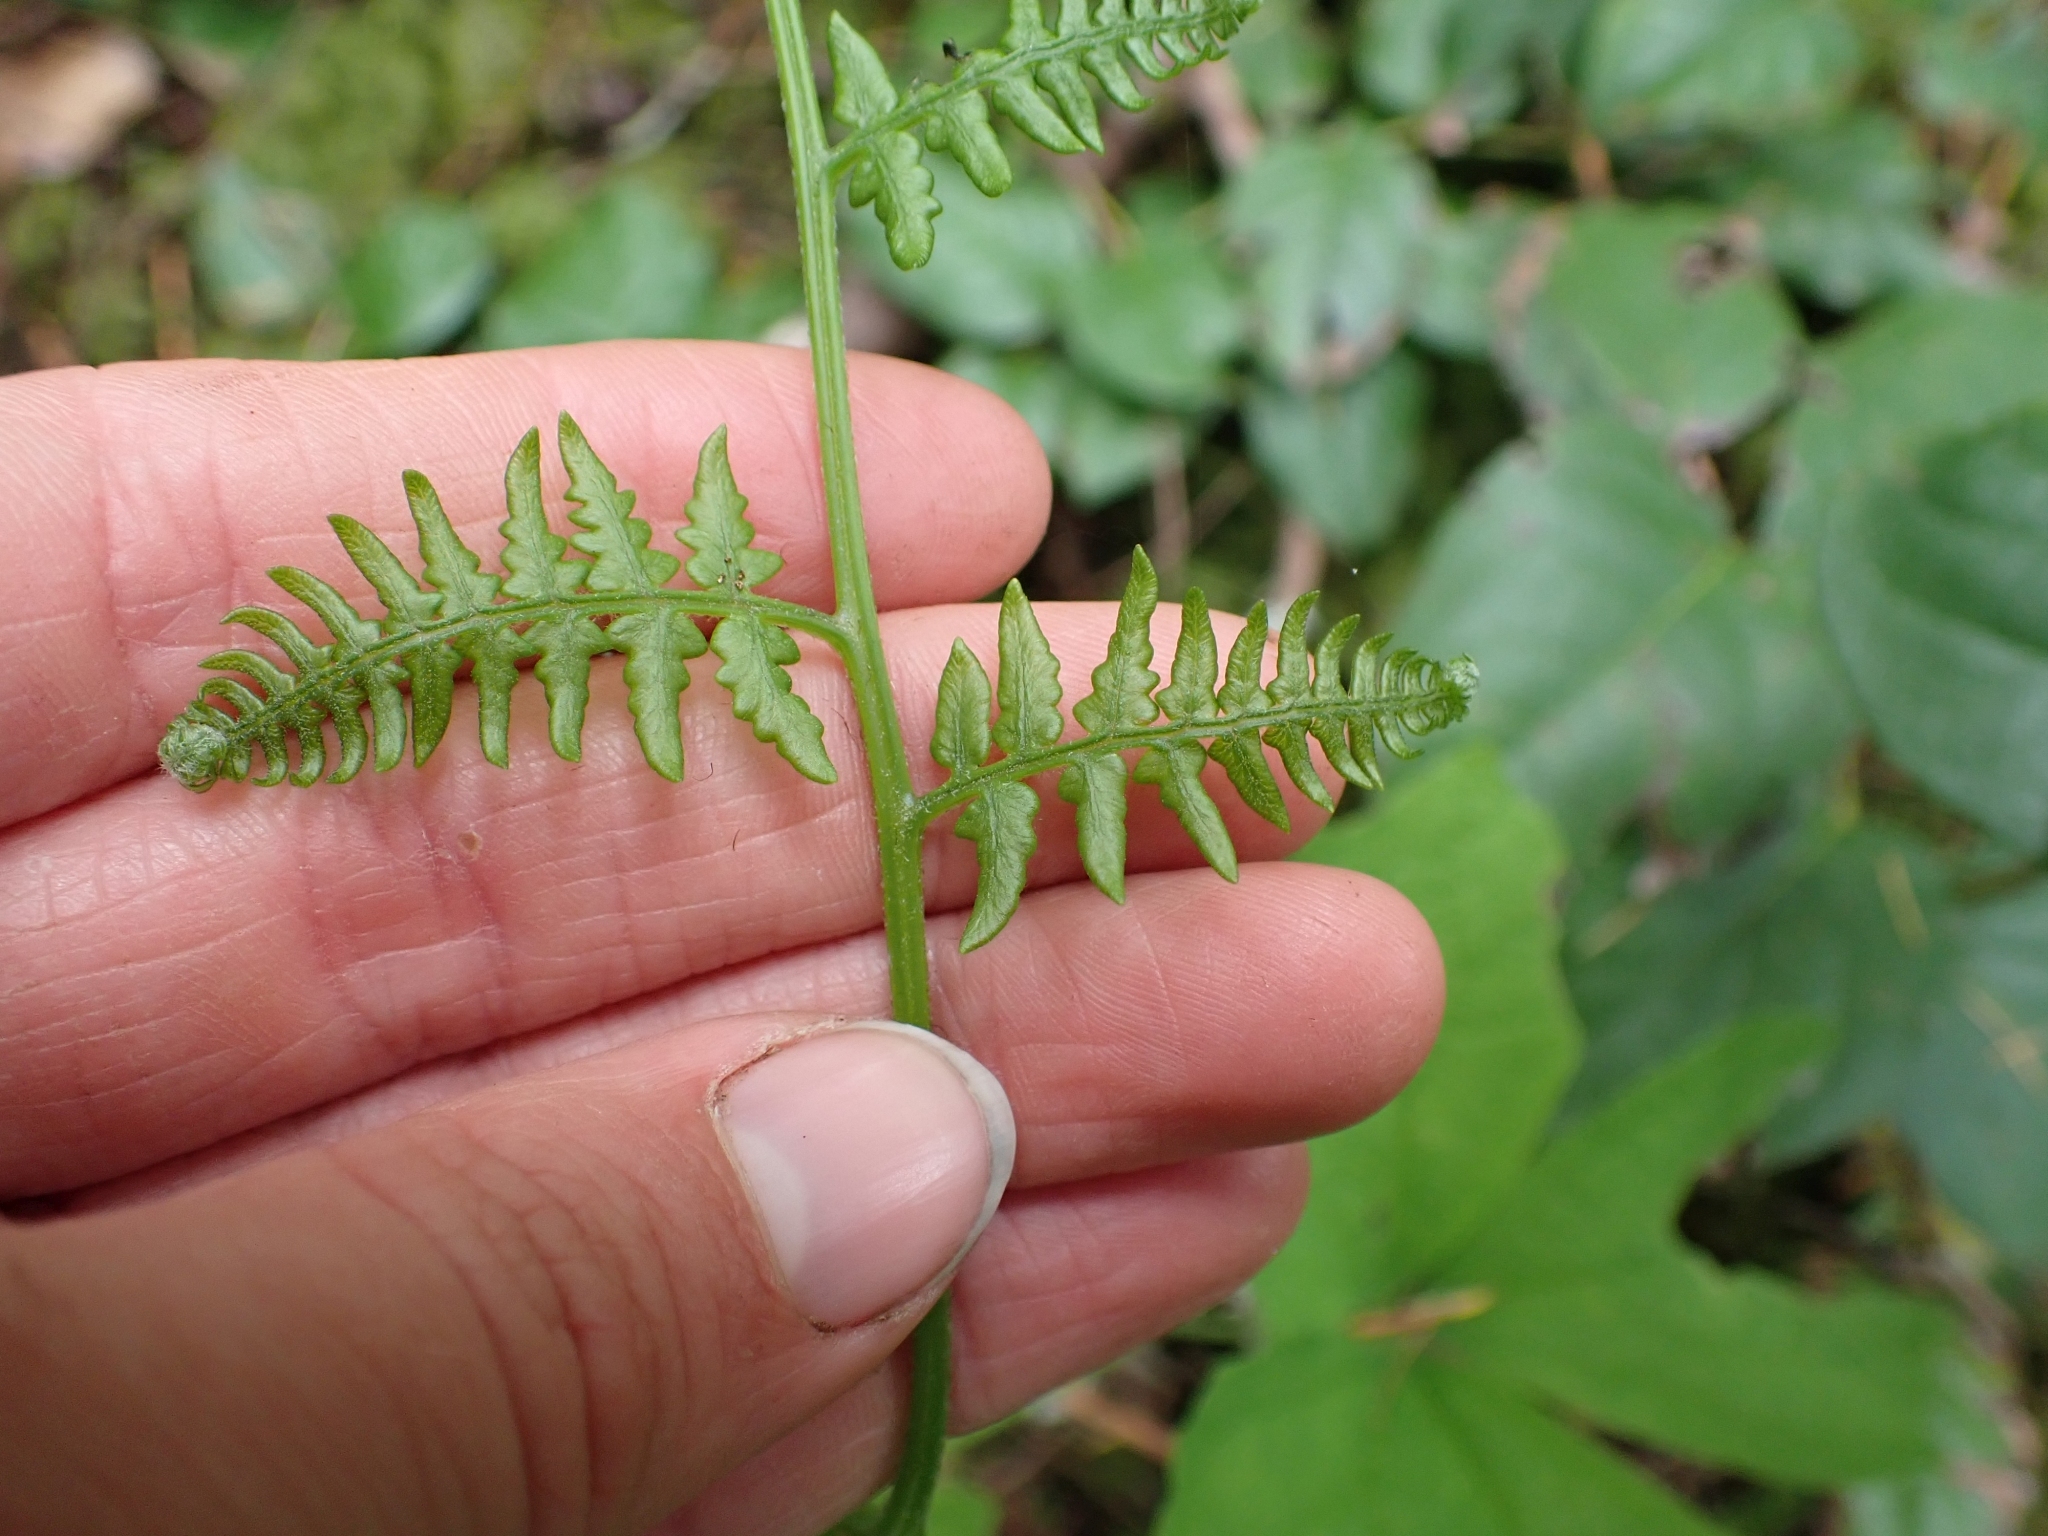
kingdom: Plantae
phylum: Tracheophyta
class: Polypodiopsida
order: Polypodiales
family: Dennstaedtiaceae
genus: Pteridium
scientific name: Pteridium aquilinum
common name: Bracken
